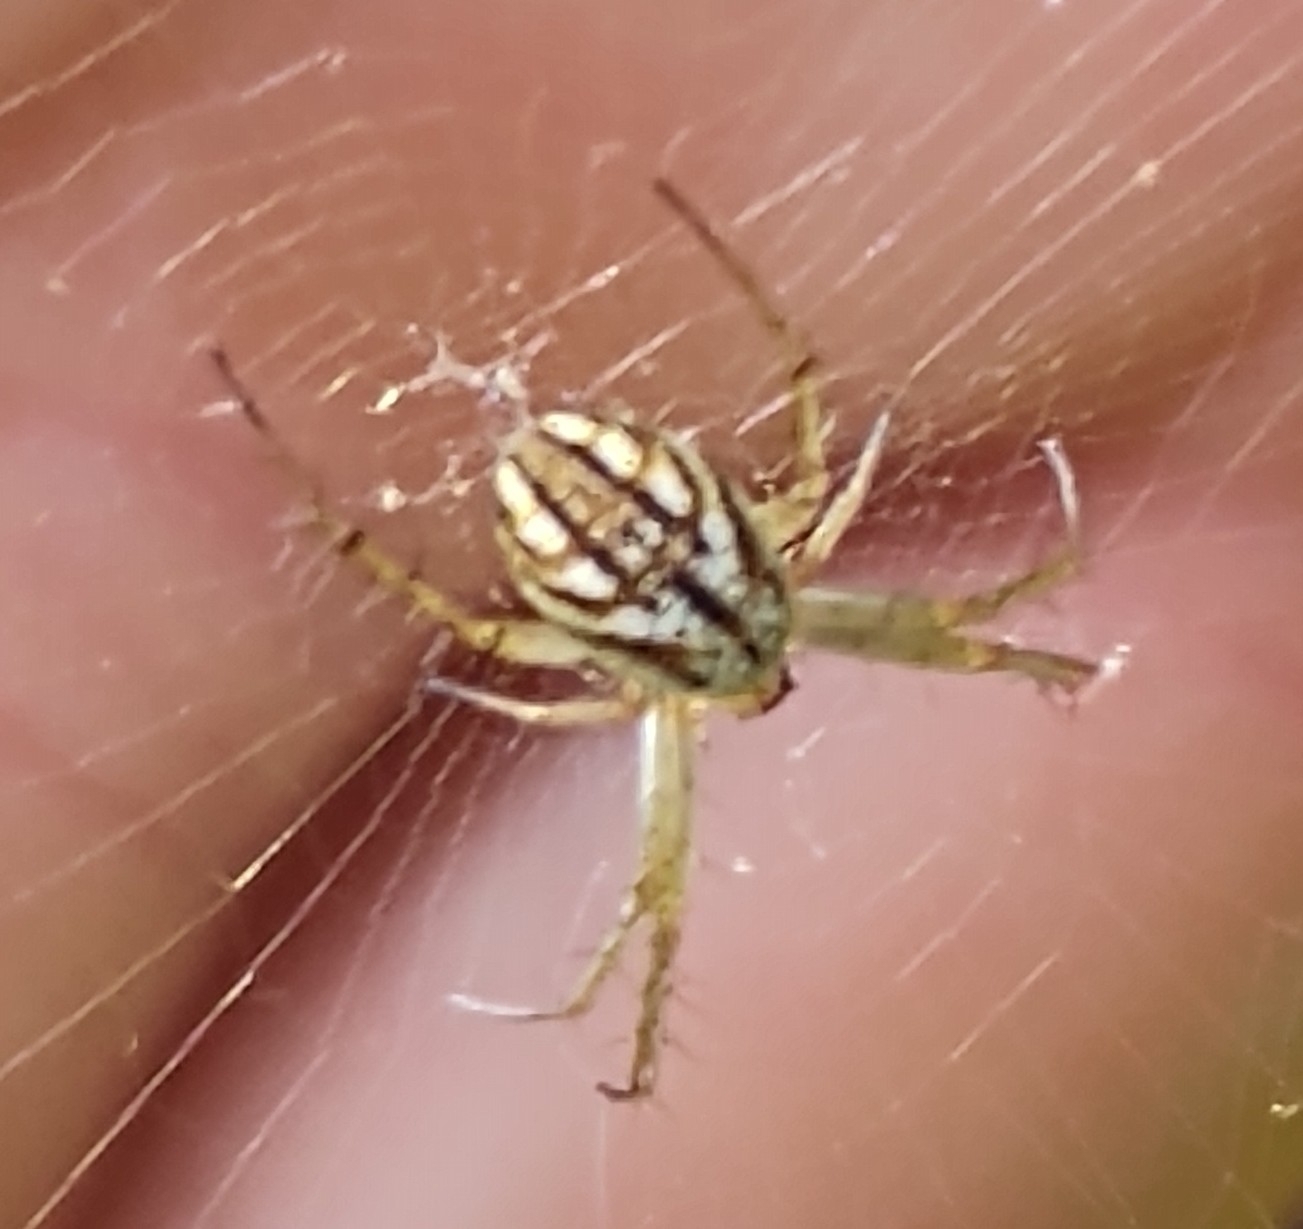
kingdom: Animalia
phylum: Arthropoda
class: Arachnida
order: Araneae
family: Araneidae
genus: Mangora
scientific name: Mangora gibberosa
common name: Lined orbweaver
